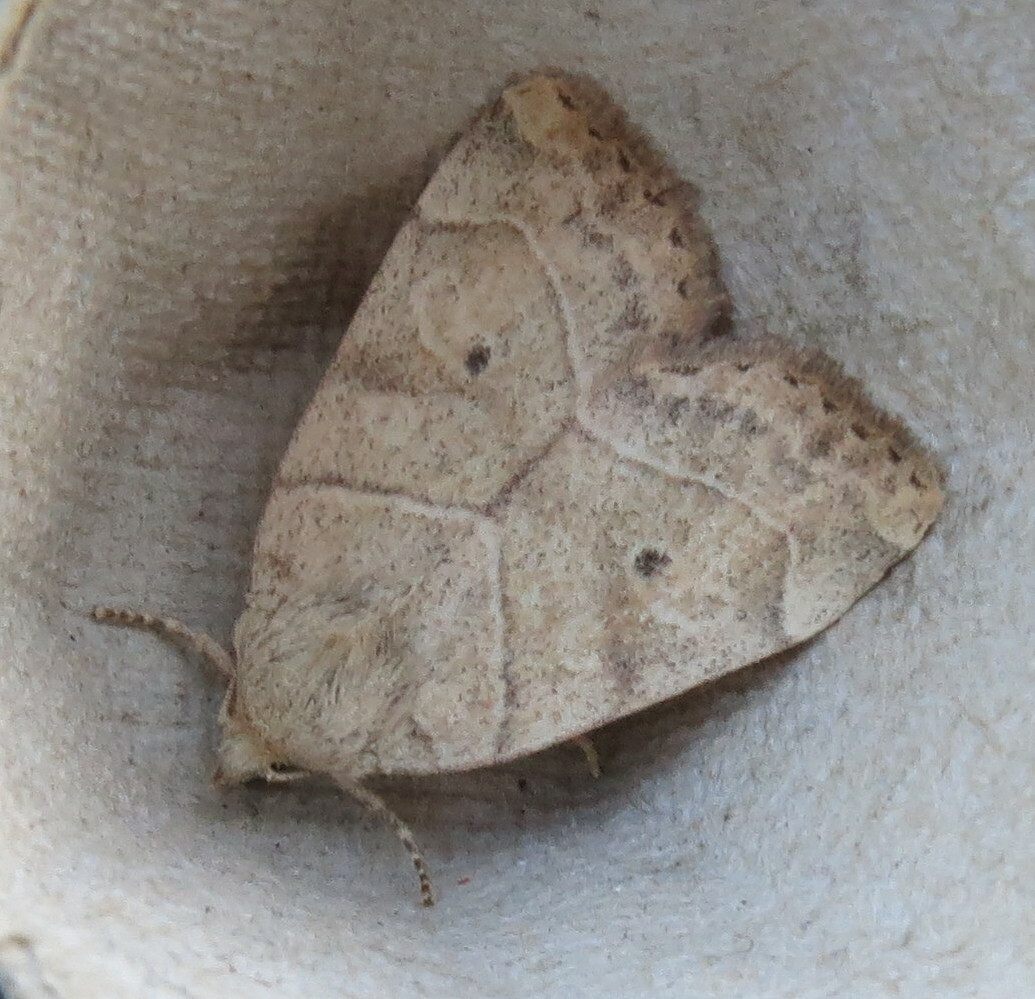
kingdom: Animalia
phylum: Arthropoda
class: Insecta
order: Lepidoptera
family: Noctuidae
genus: Cosmia
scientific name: Cosmia trapezina
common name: Dun-bar
